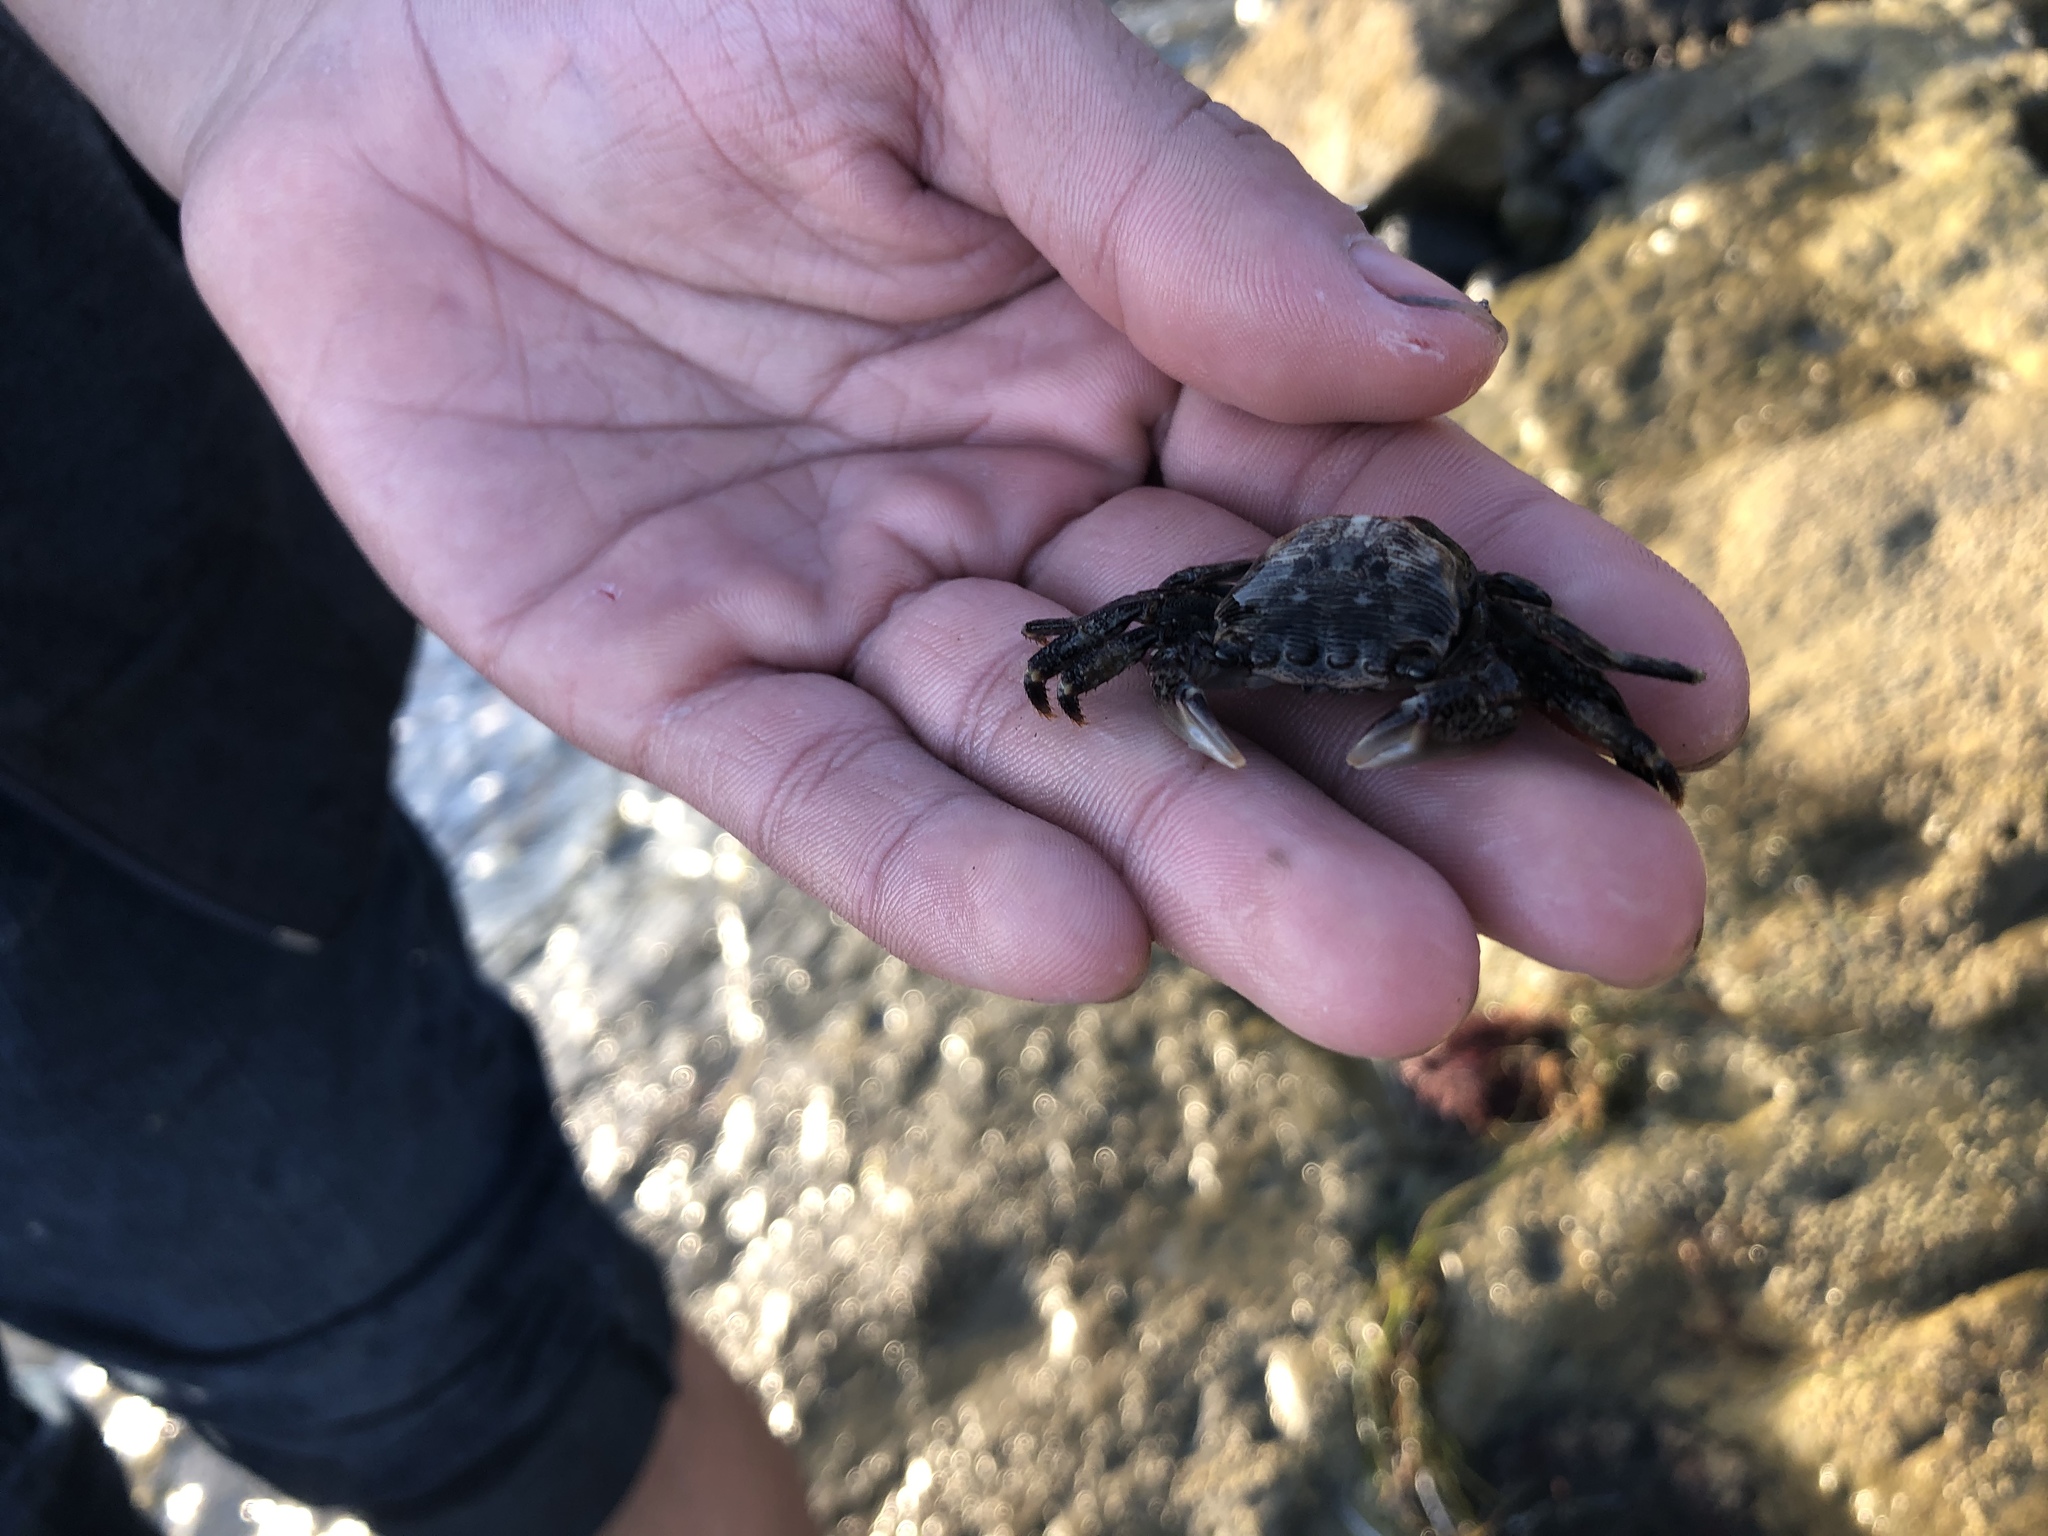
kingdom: Animalia
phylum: Arthropoda
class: Malacostraca
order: Decapoda
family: Grapsidae
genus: Pachygrapsus
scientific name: Pachygrapsus crassipes
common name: Striped shore crab
